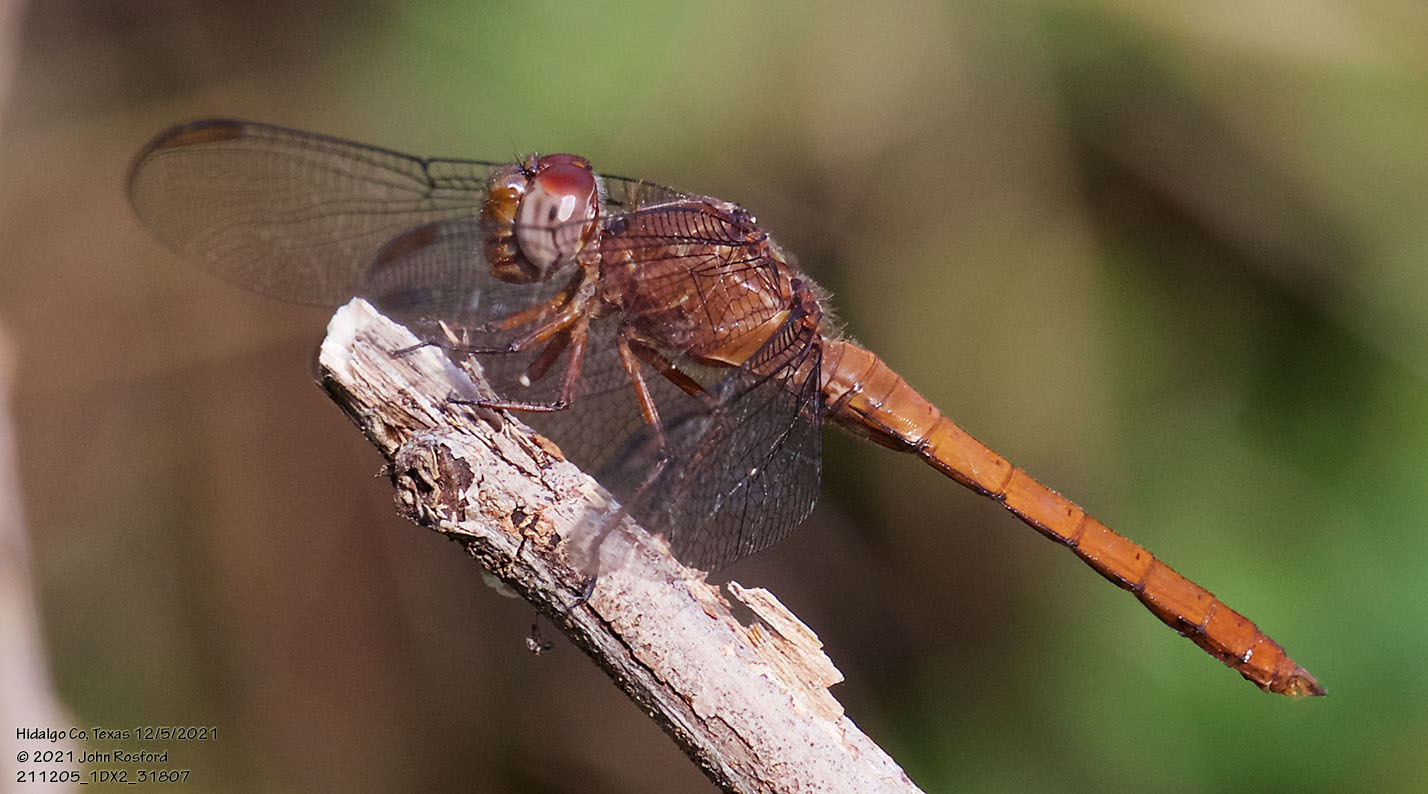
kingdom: Animalia
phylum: Arthropoda
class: Insecta
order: Odonata
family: Libellulidae
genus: Orthemis
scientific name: Orthemis discolor
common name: Carmine skimmer
